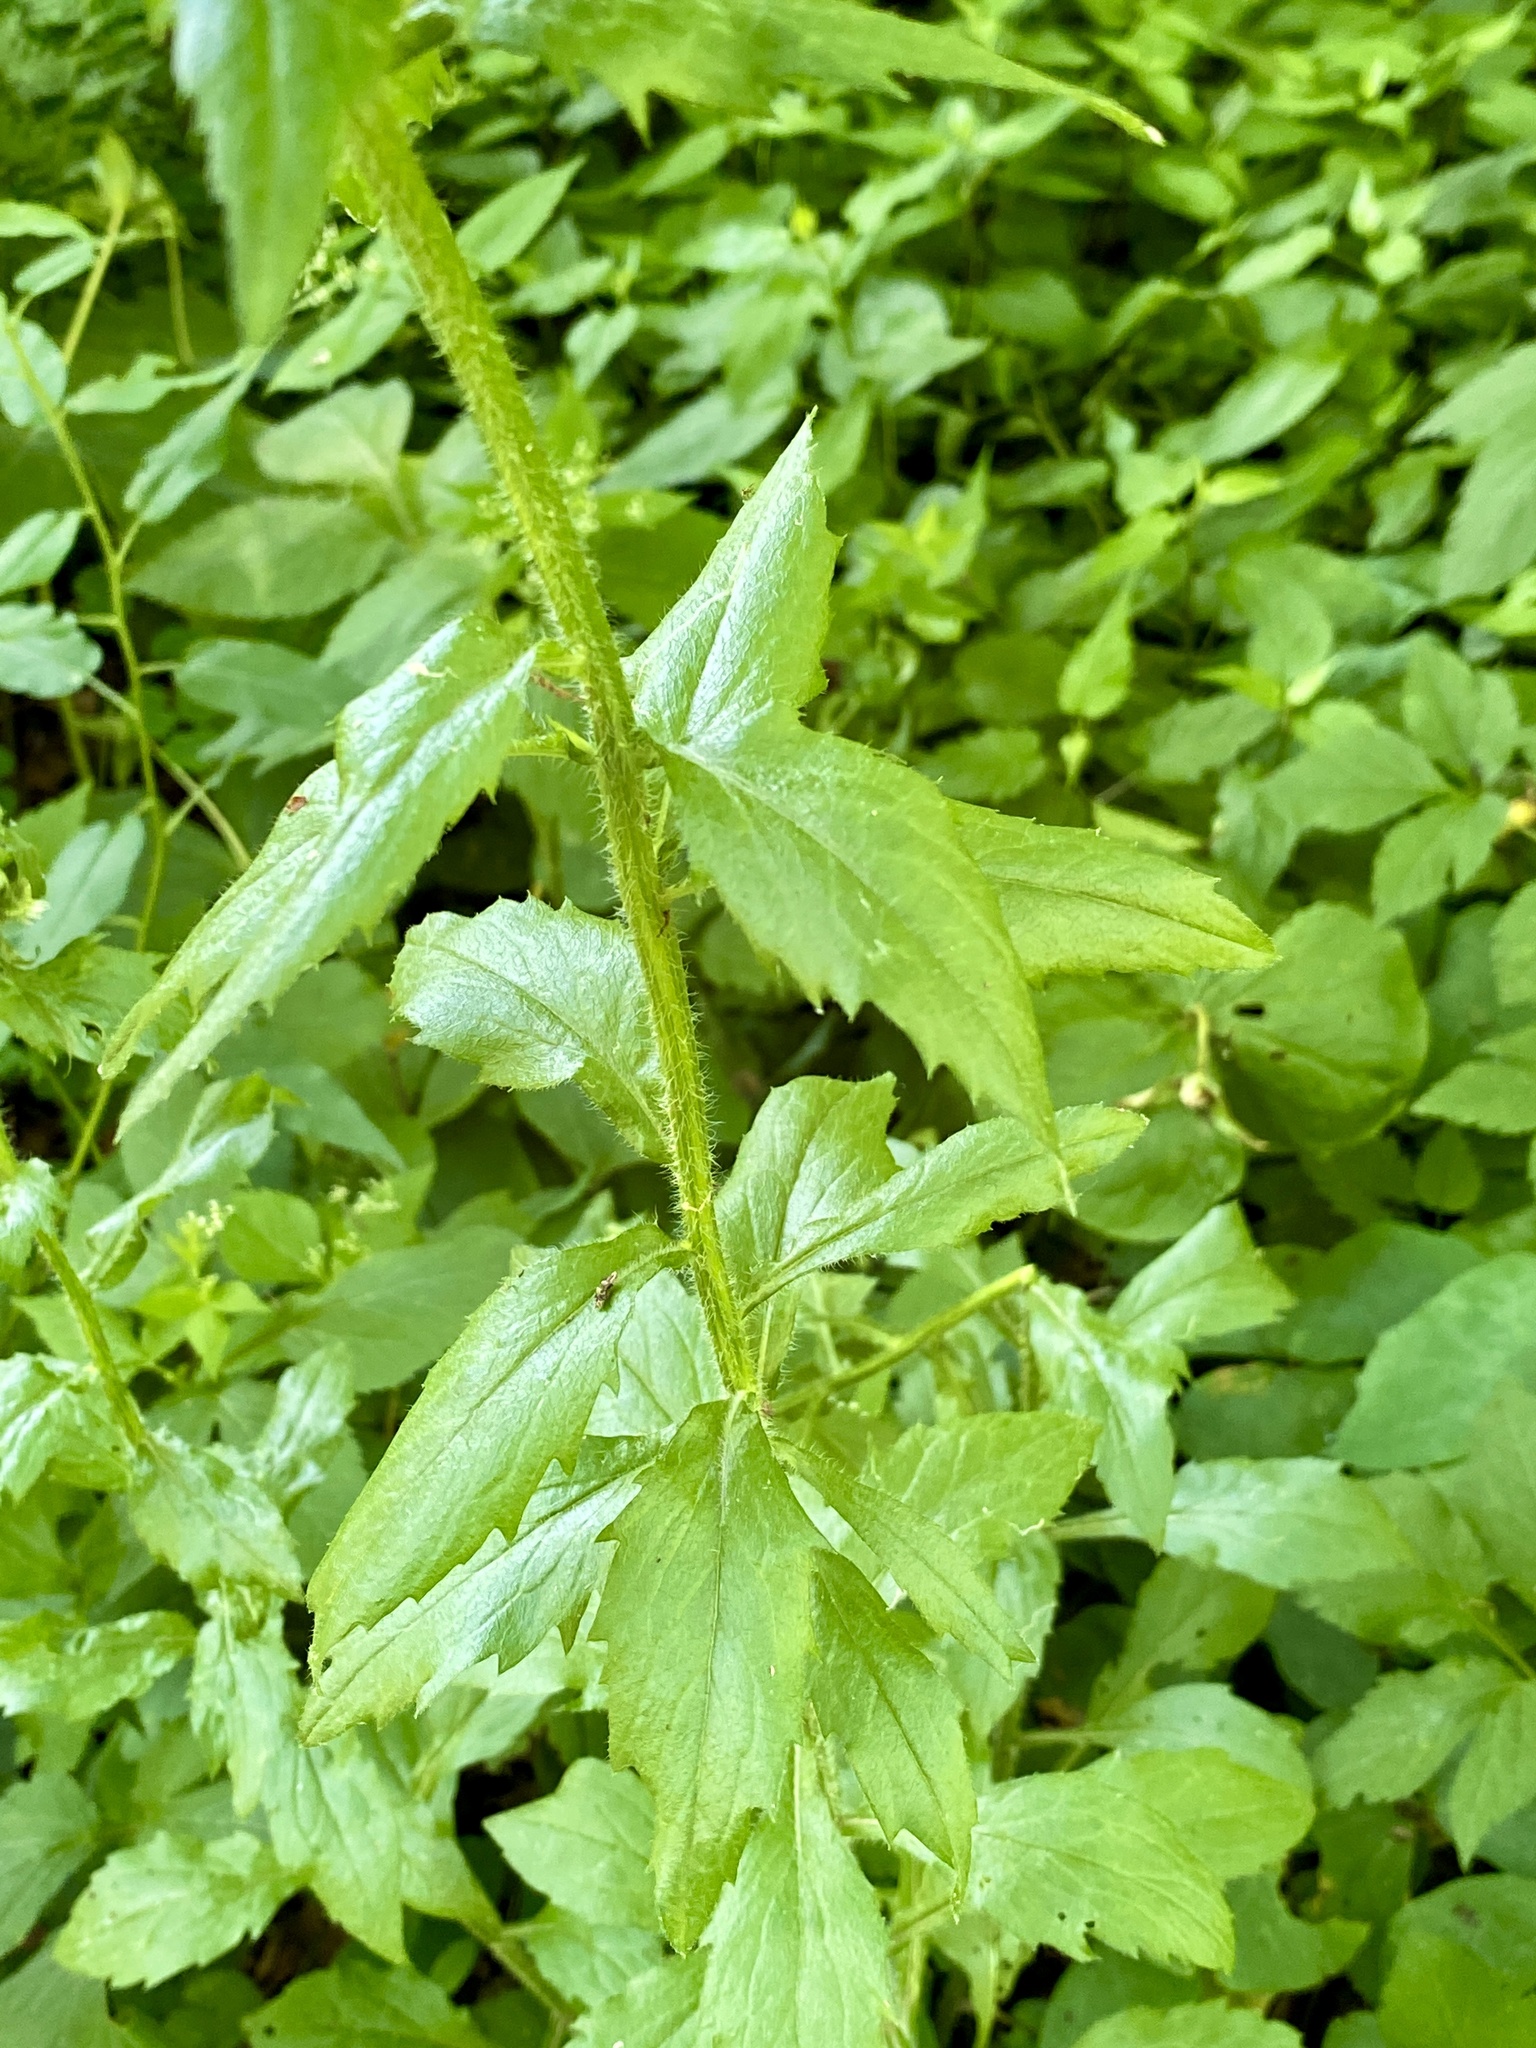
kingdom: Plantae
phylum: Tracheophyta
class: Magnoliopsida
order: Asterales
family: Asteraceae
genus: Erigeron
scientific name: Erigeron annuus
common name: Tall fleabane
